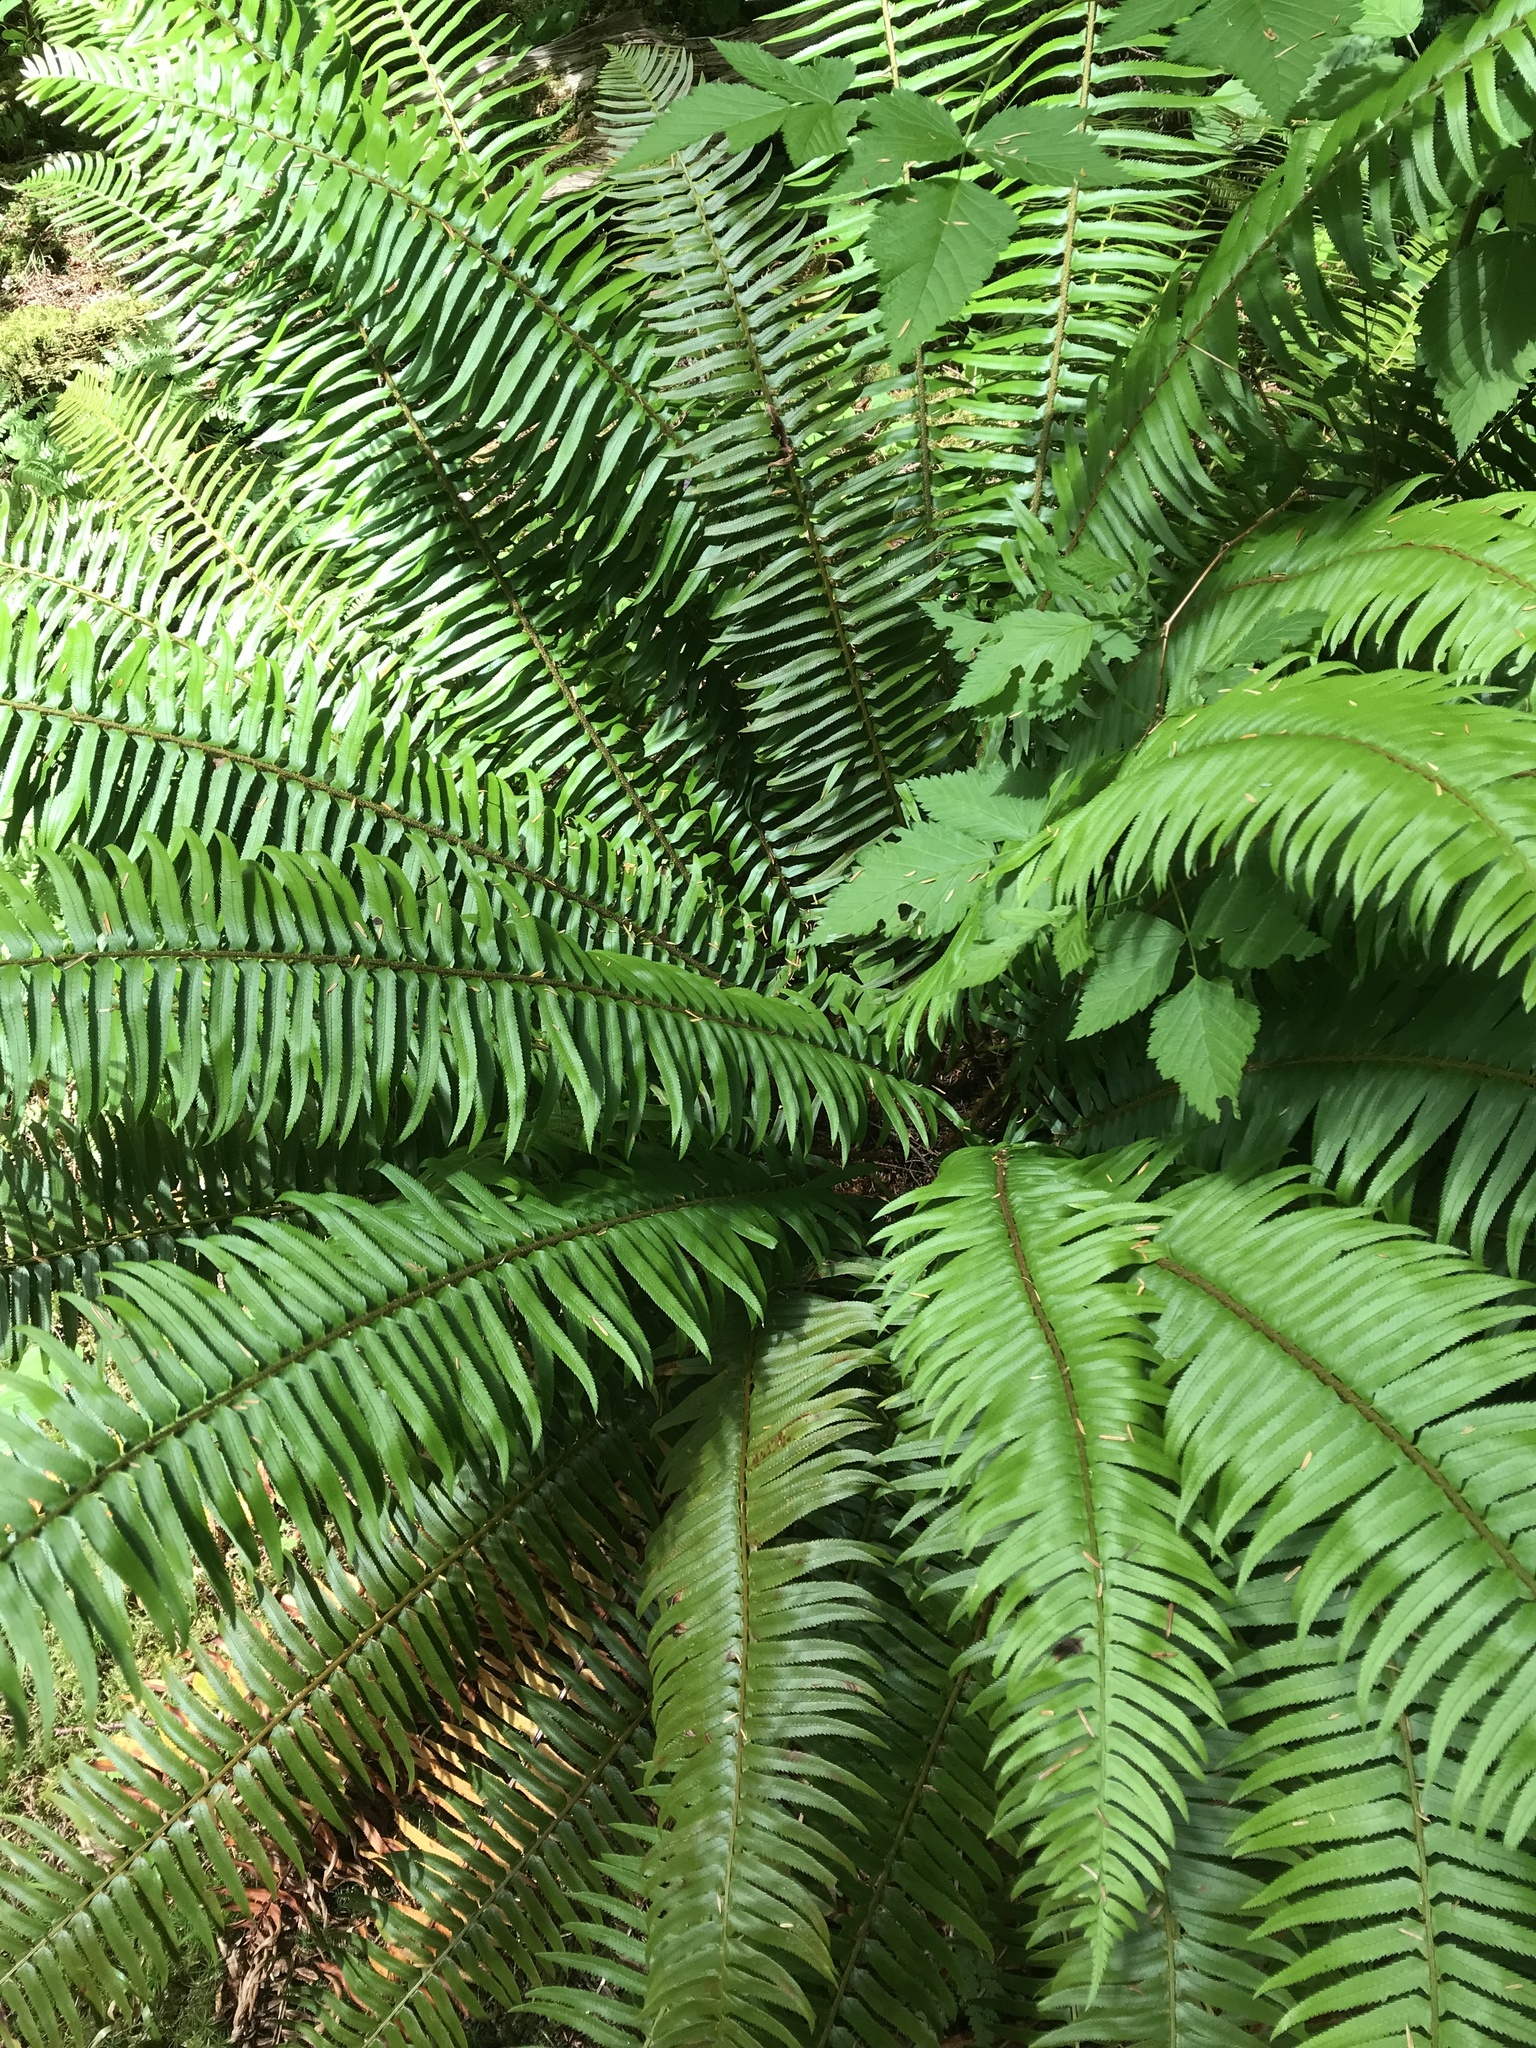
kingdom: Plantae
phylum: Tracheophyta
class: Polypodiopsida
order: Polypodiales
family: Dryopteridaceae
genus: Polystichum
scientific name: Polystichum munitum
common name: Western sword-fern
